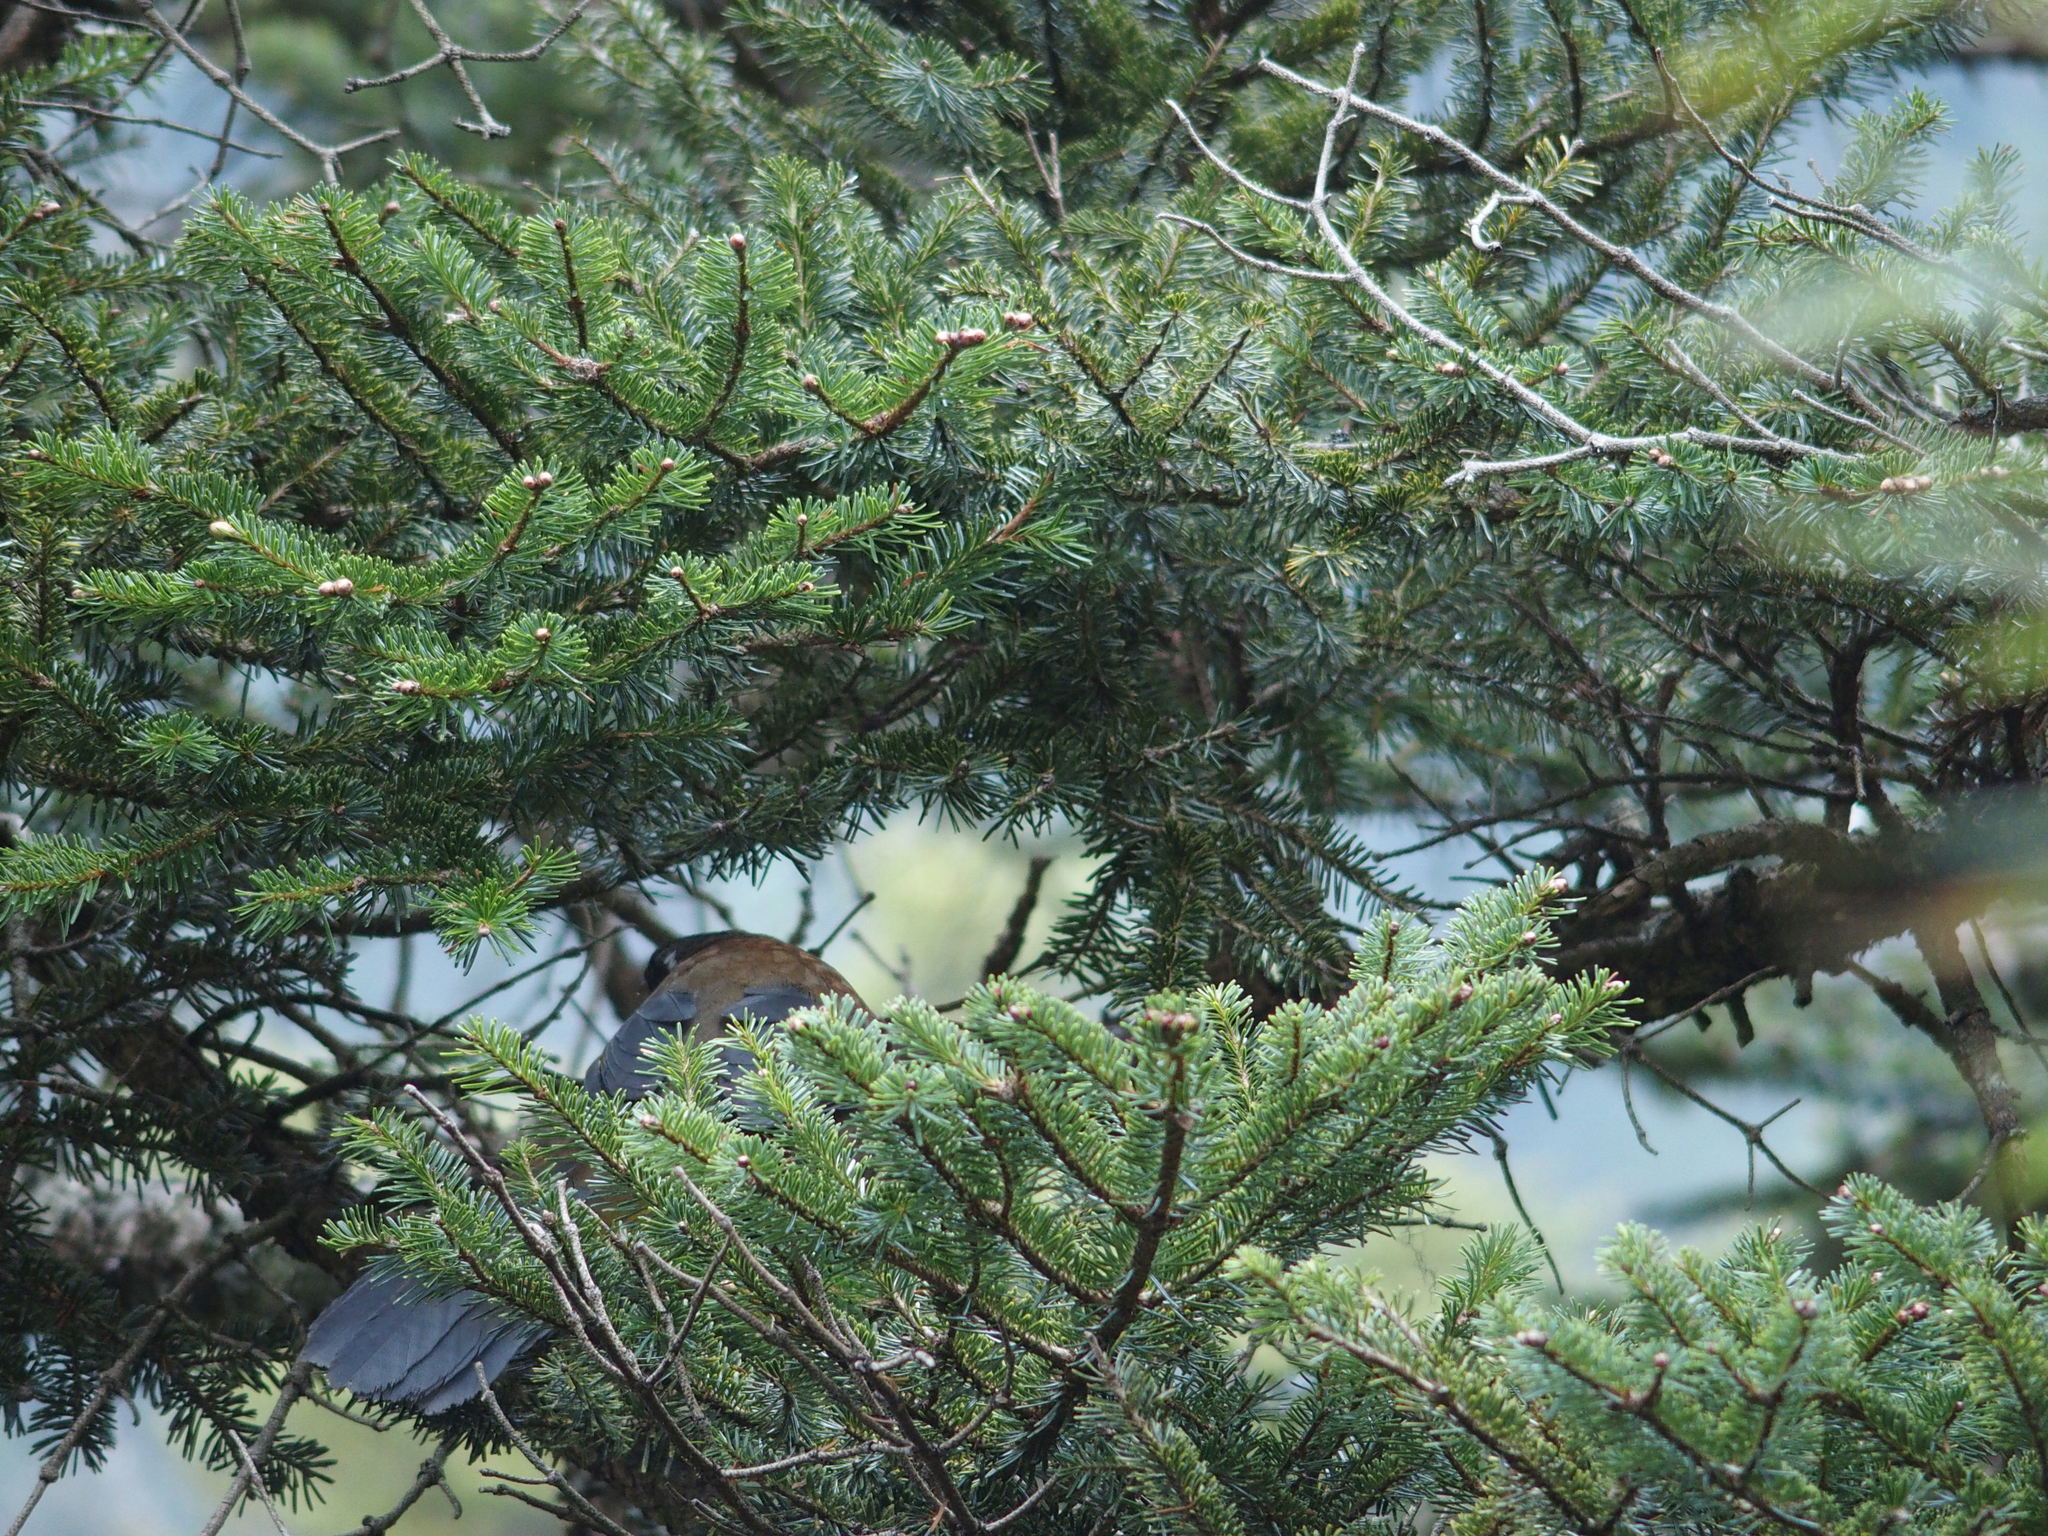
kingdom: Animalia
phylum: Chordata
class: Aves
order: Passeriformes
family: Leiothrichidae
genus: Trochalopteron
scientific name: Trochalopteron morrisonianum
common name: White-whiskered laughingthrush
